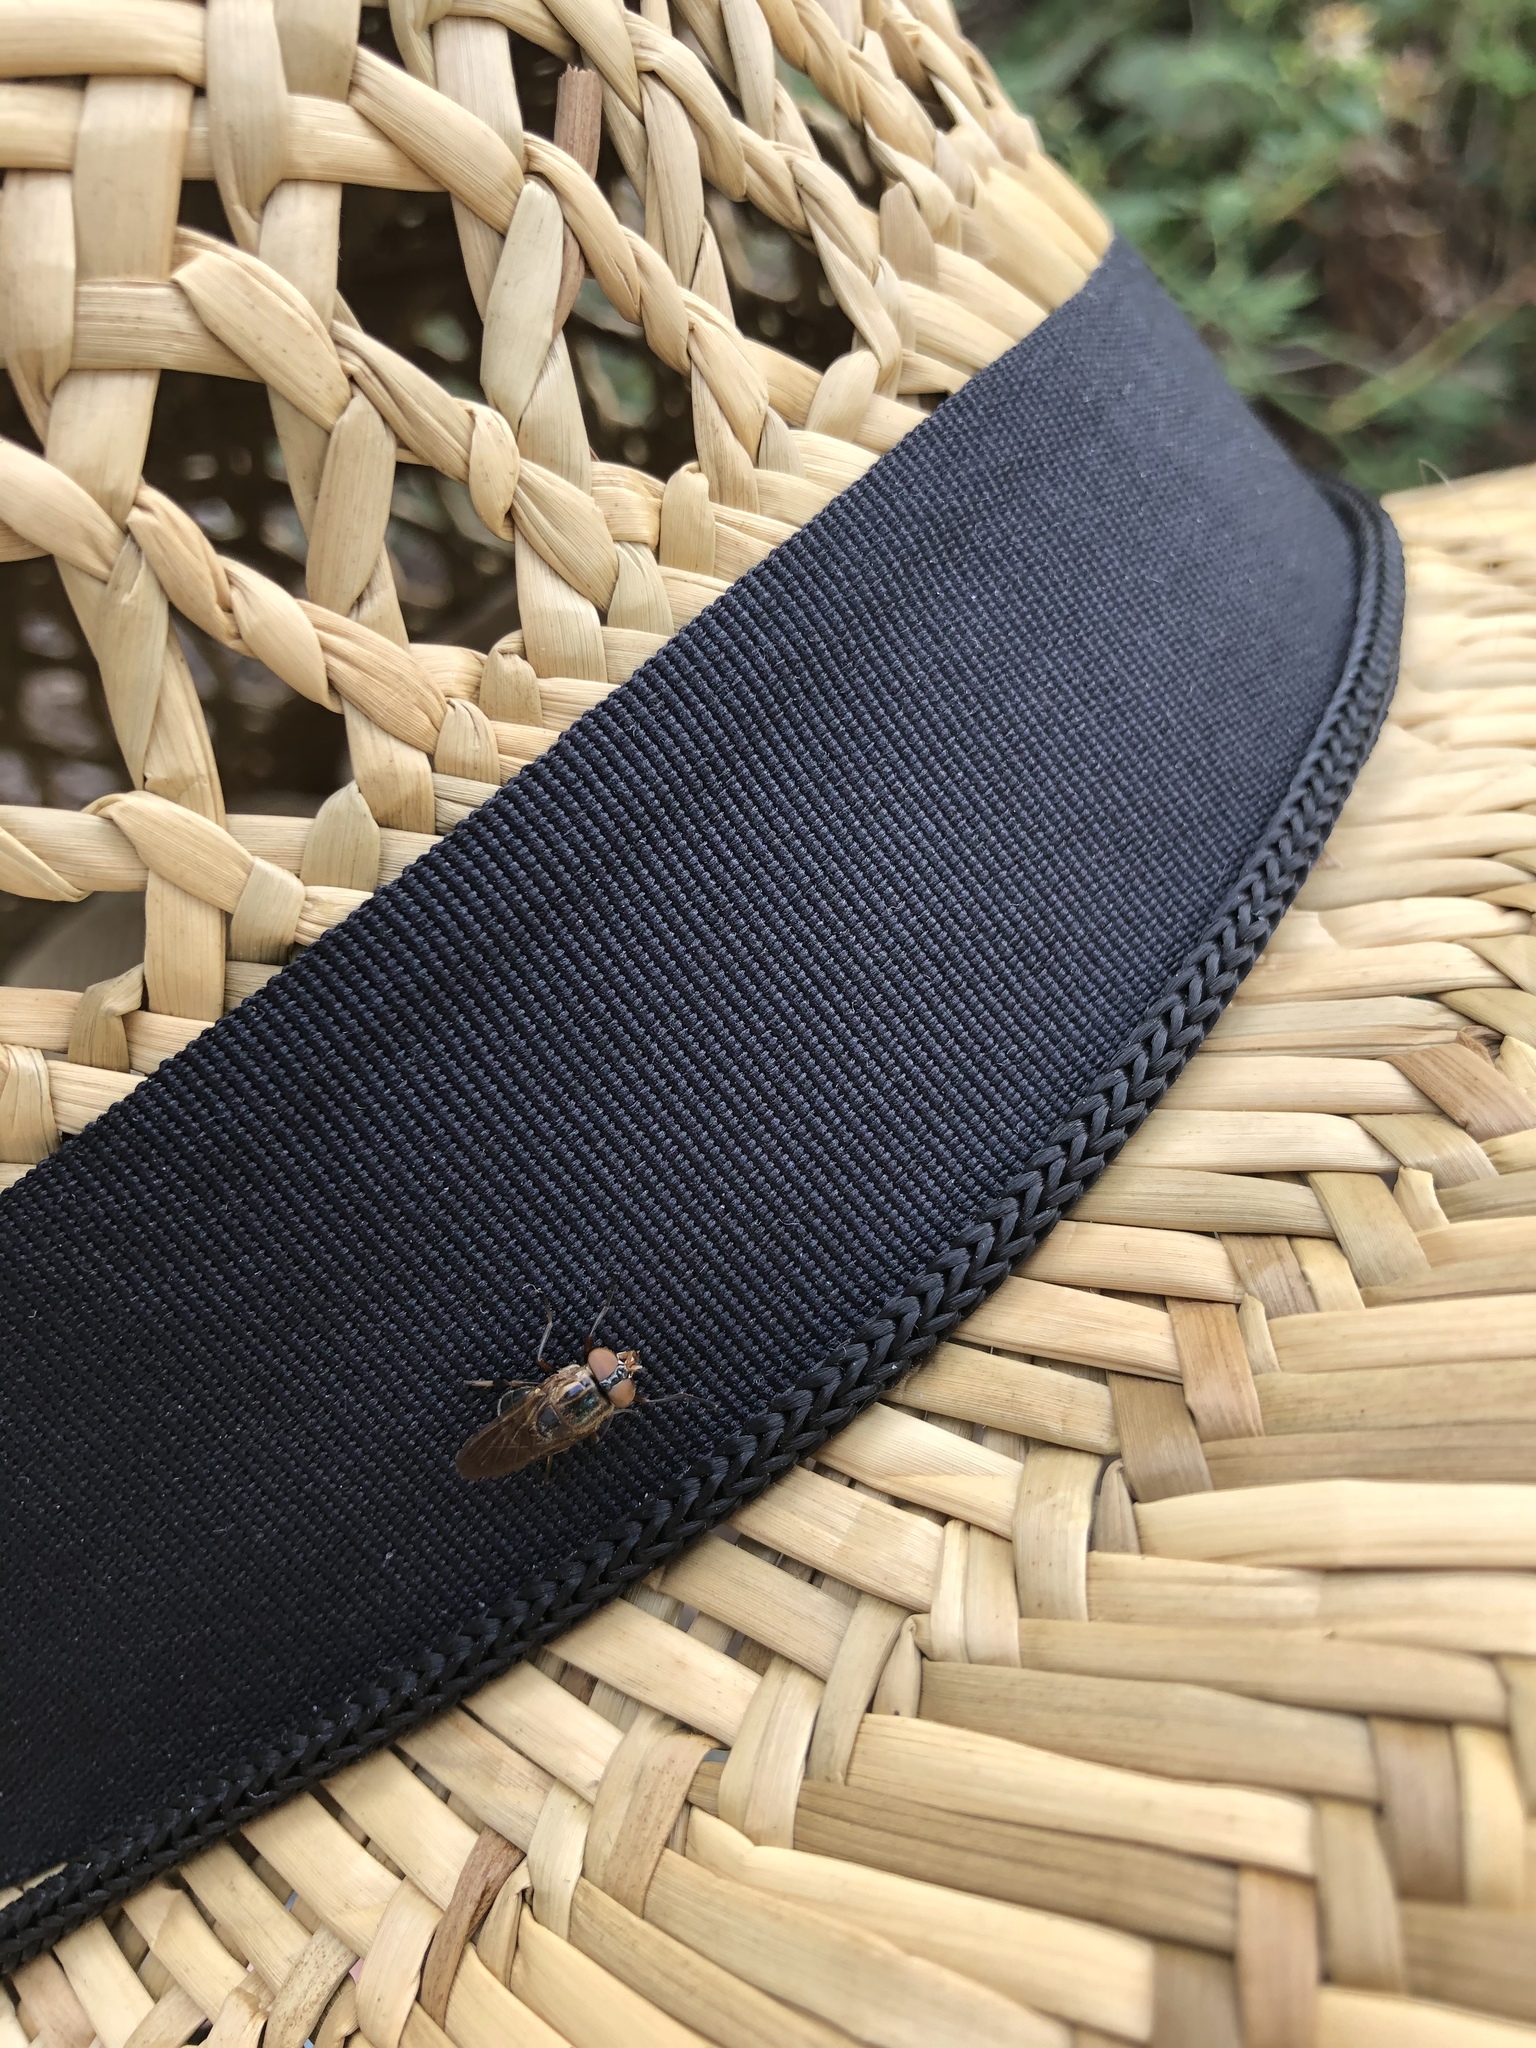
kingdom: Animalia
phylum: Arthropoda
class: Insecta
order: Diptera
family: Syrphidae
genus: Copestylum
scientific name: Copestylum tricinctum
